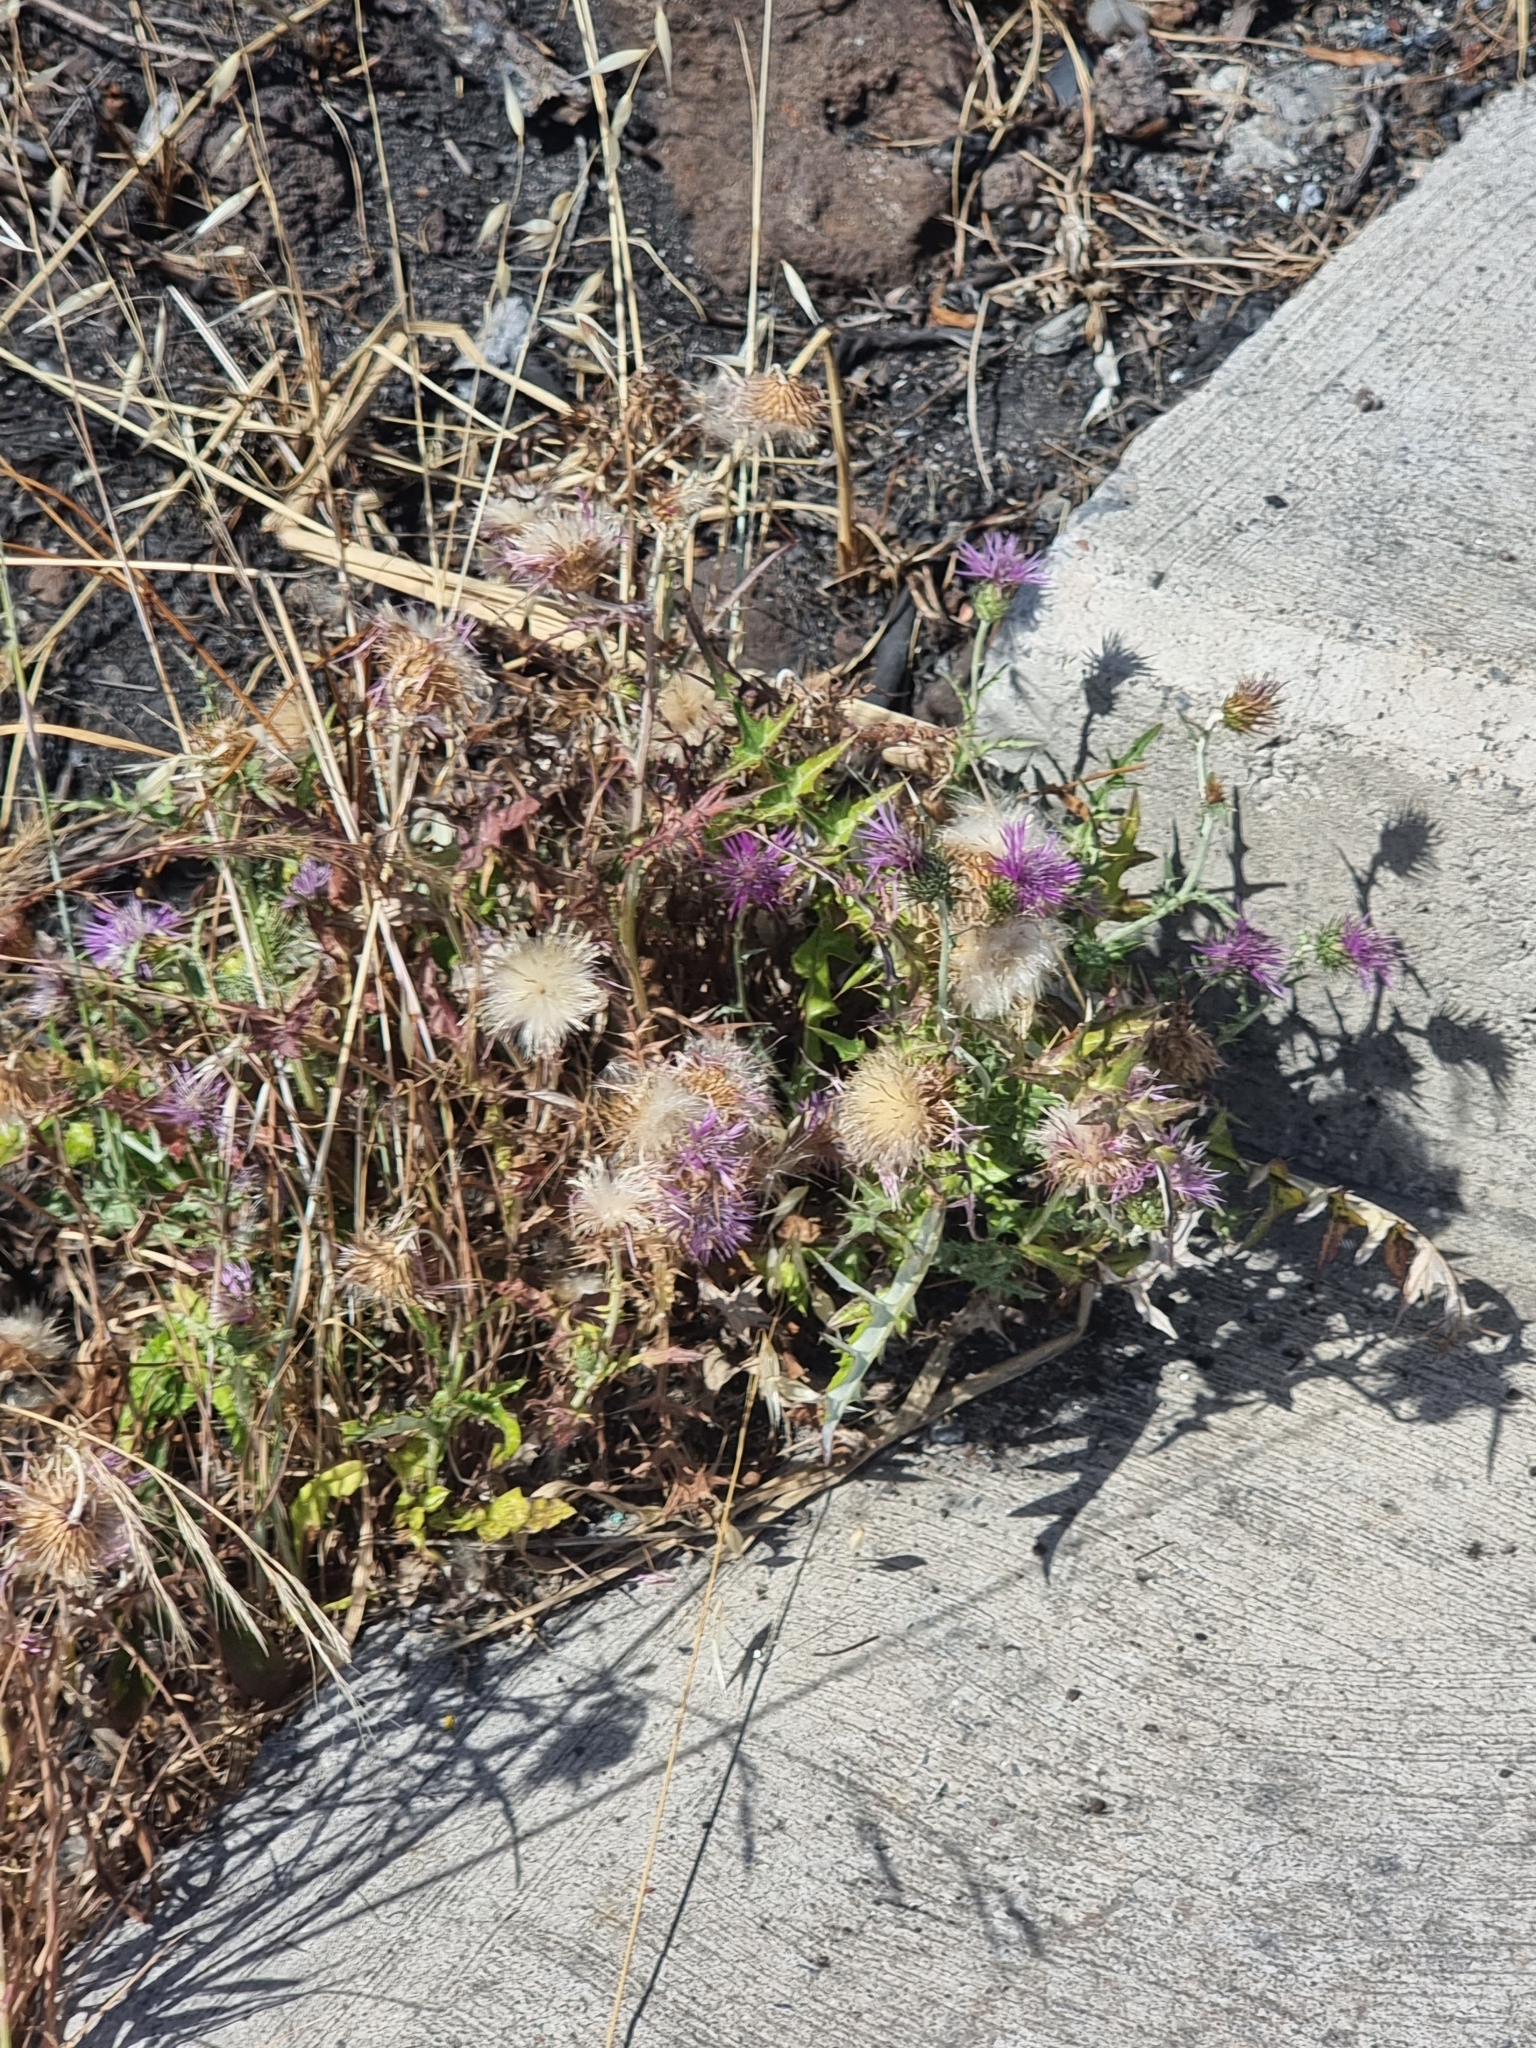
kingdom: Plantae
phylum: Tracheophyta
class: Magnoliopsida
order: Asterales
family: Asteraceae
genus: Galactites
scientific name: Galactites tomentosa
